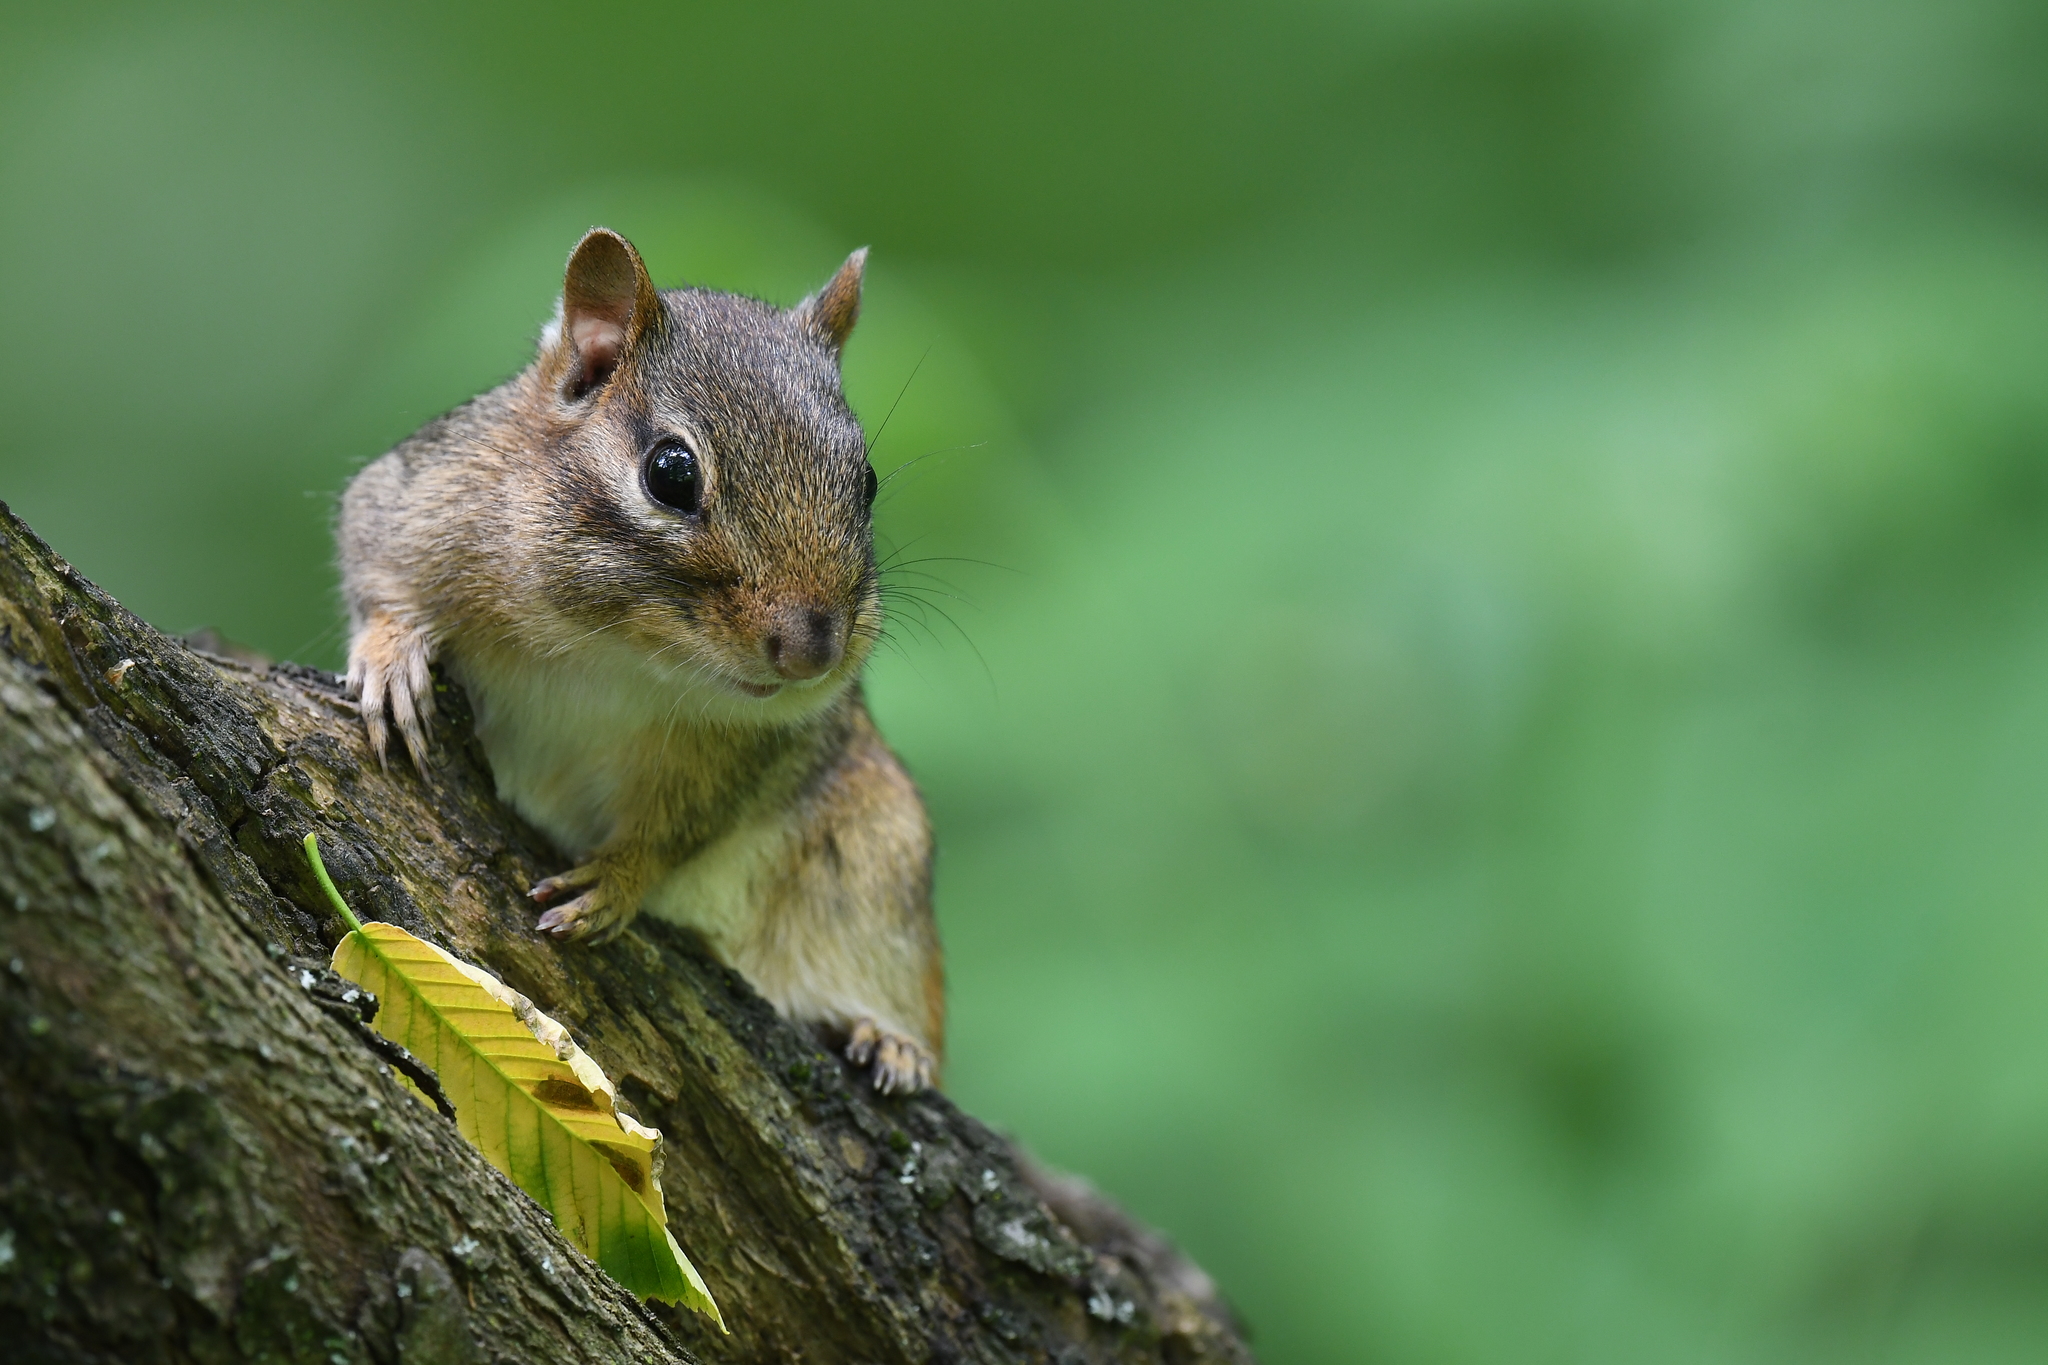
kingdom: Animalia
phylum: Chordata
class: Mammalia
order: Rodentia
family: Sciuridae
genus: Tamias
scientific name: Tamias striatus
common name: Eastern chipmunk
